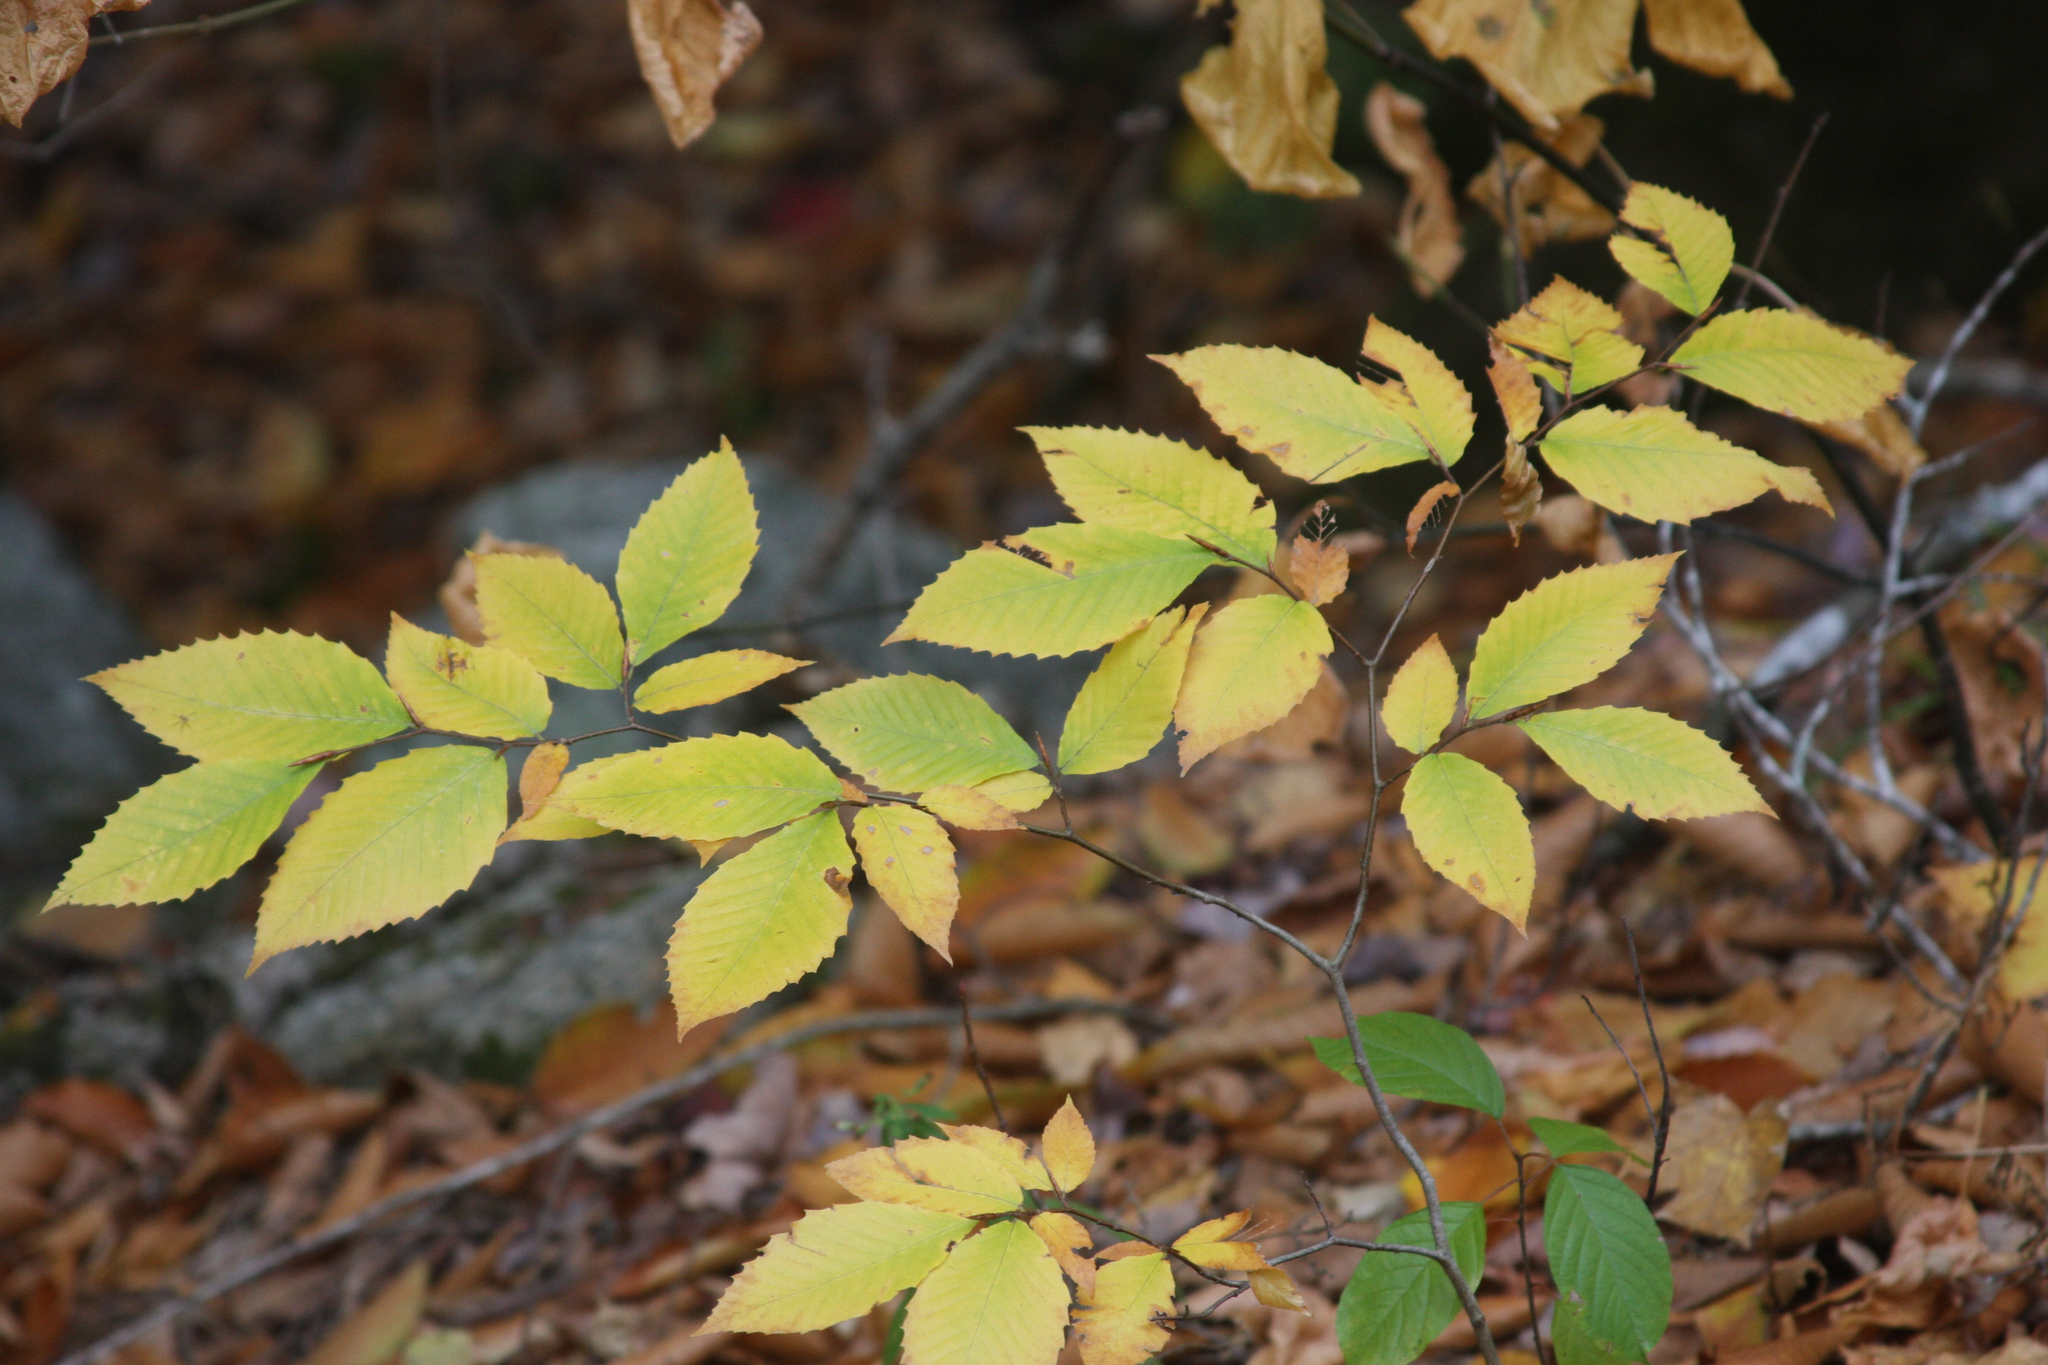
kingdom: Plantae
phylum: Tracheophyta
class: Magnoliopsida
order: Fagales
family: Fagaceae
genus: Fagus
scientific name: Fagus grandifolia
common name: American beech
